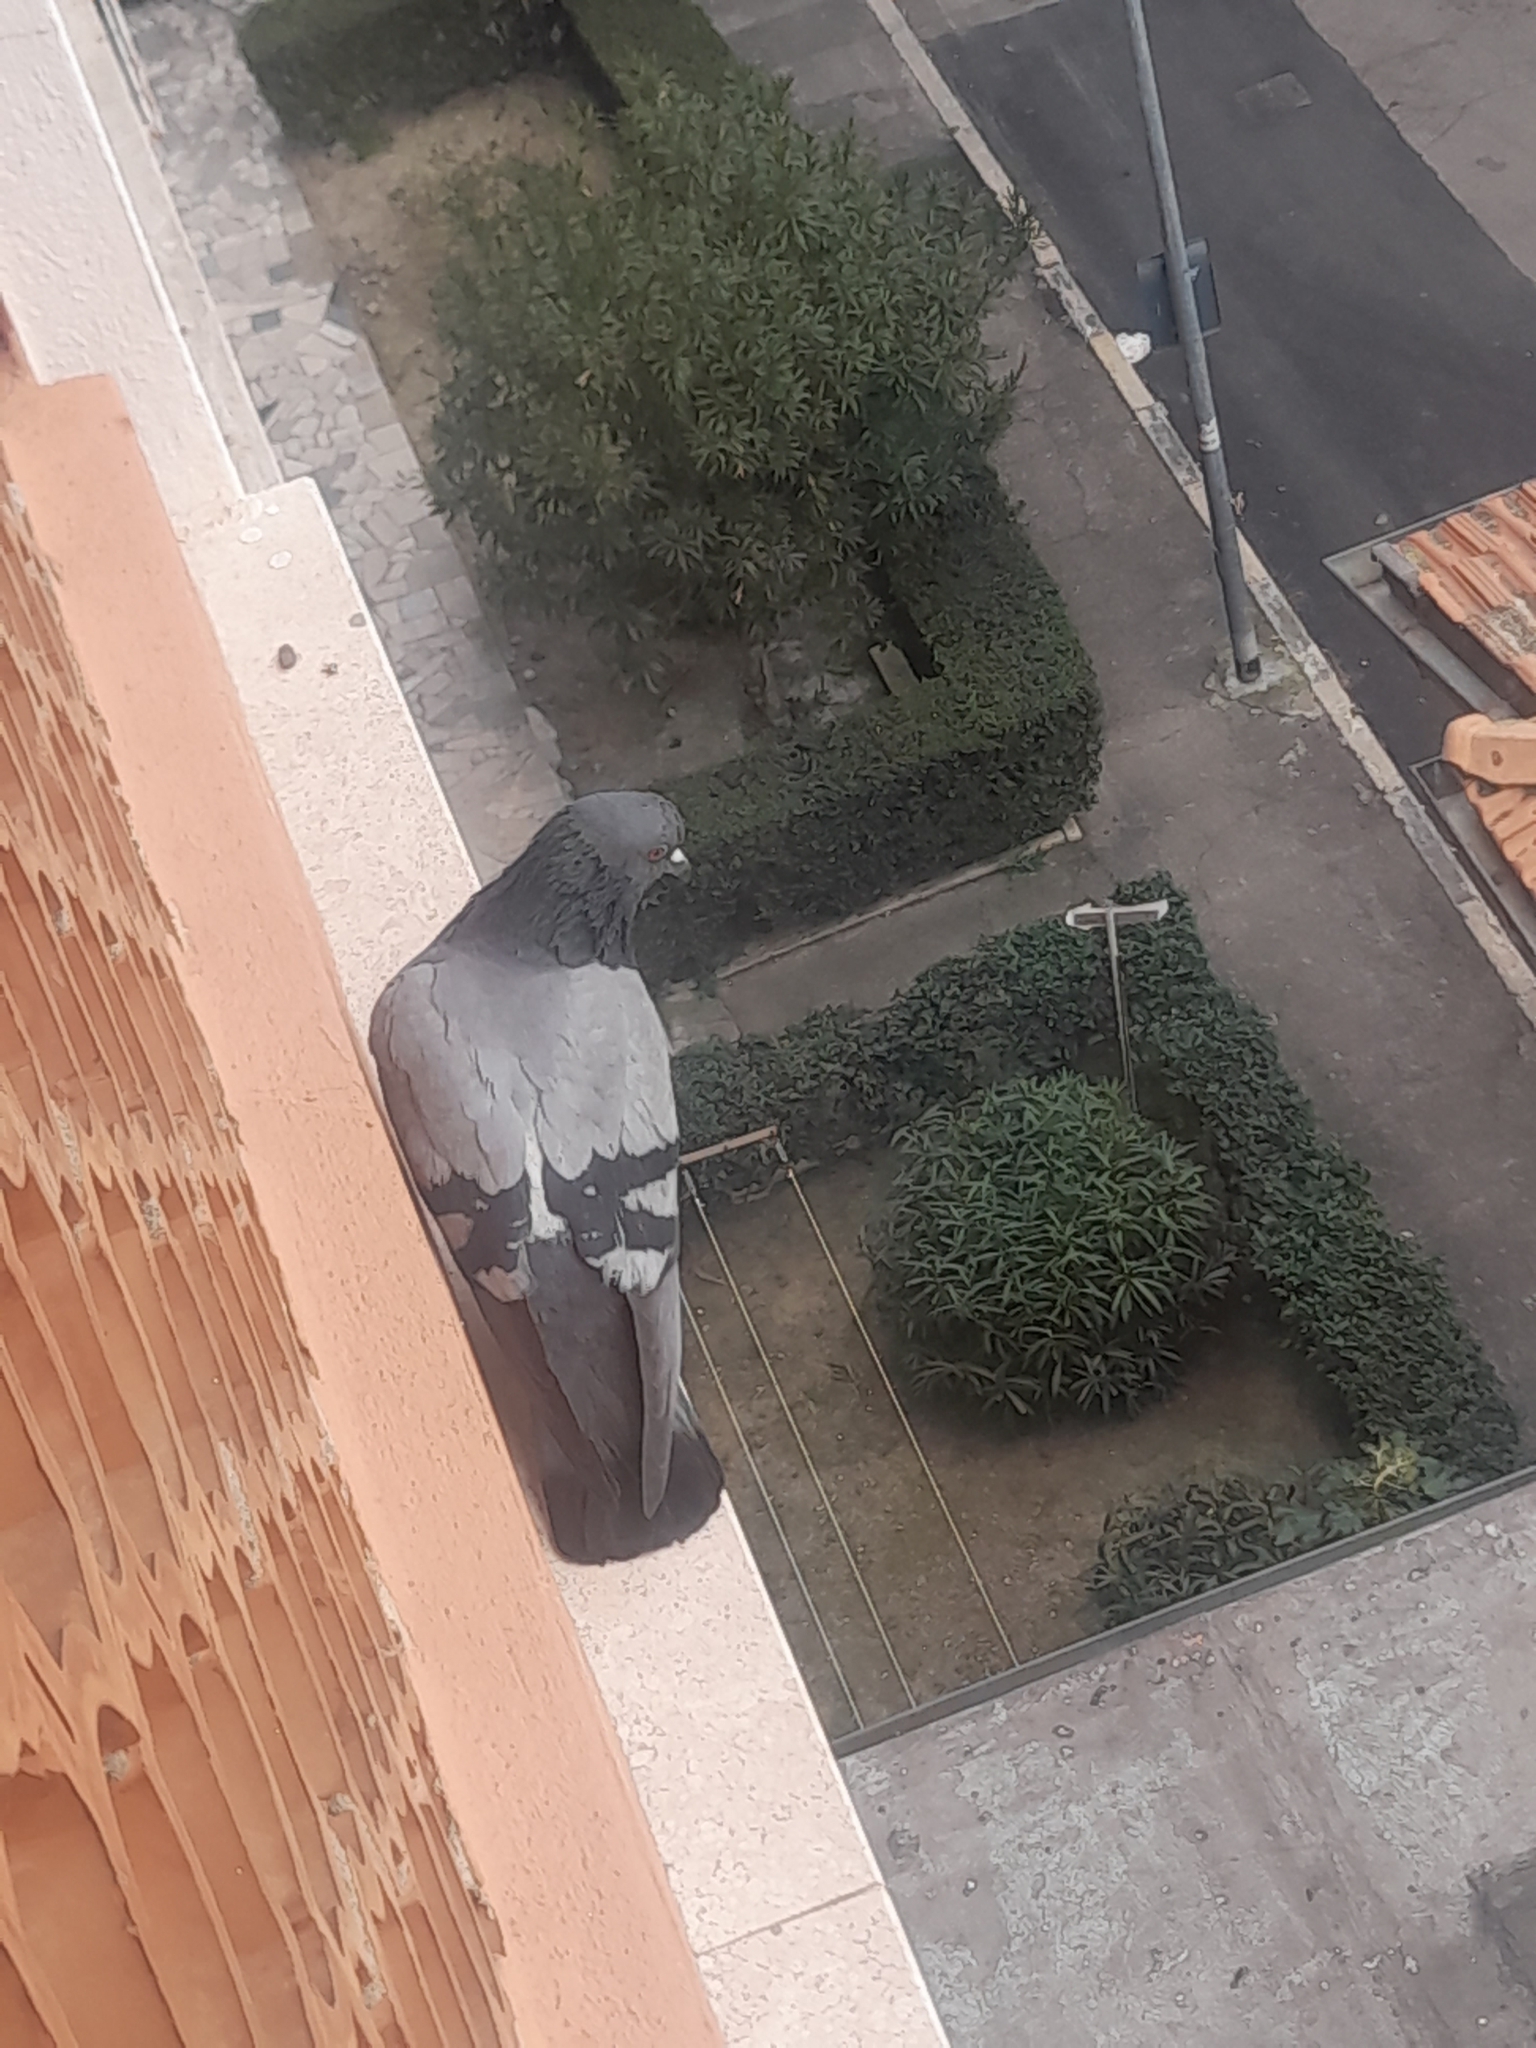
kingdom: Animalia
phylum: Chordata
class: Aves
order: Columbiformes
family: Columbidae
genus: Columba
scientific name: Columba livia
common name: Rock pigeon
